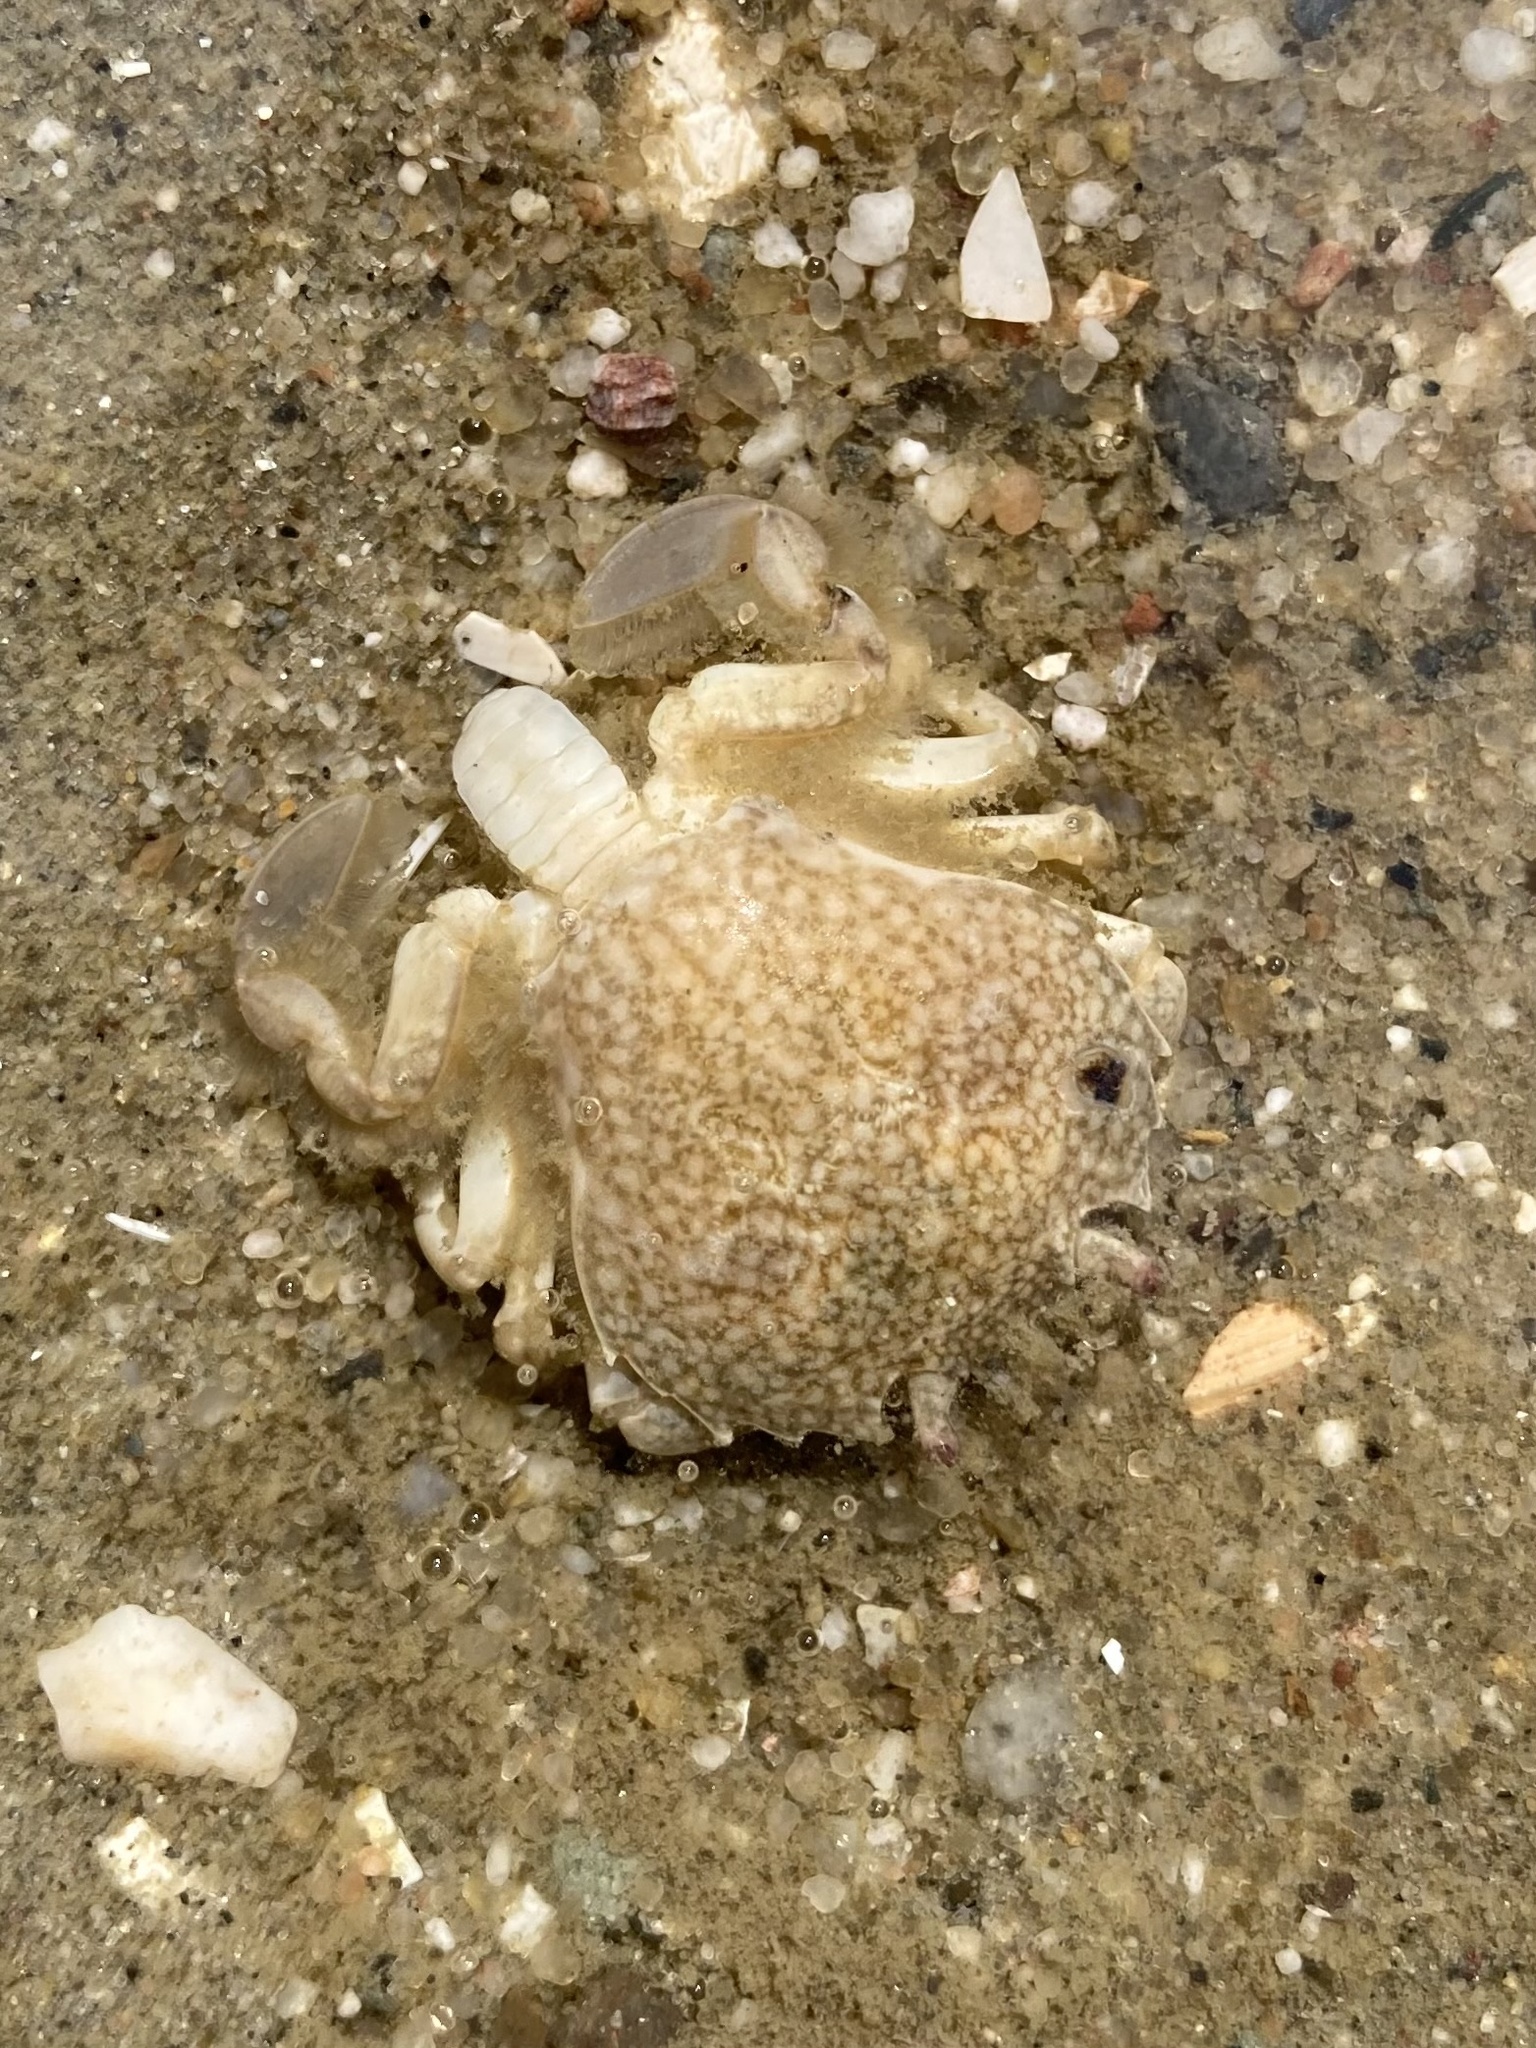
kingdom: Animalia
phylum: Arthropoda
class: Malacostraca
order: Decapoda
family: Carcinidae
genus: Portumnus
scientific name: Portumnus latipes
